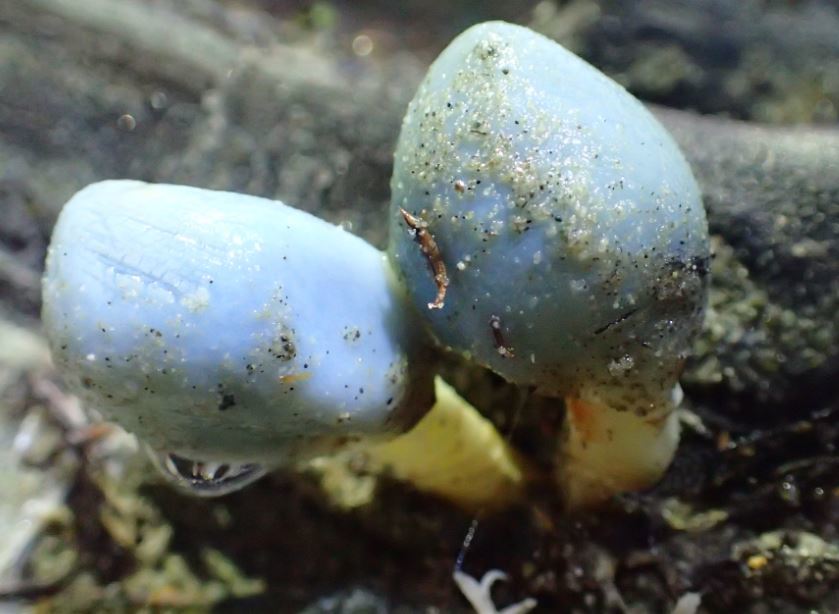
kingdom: Fungi
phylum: Basidiomycota
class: Agaricomycetes
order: Agaricales
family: Agaricaceae
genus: Clavogaster
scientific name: Clavogaster virescens
